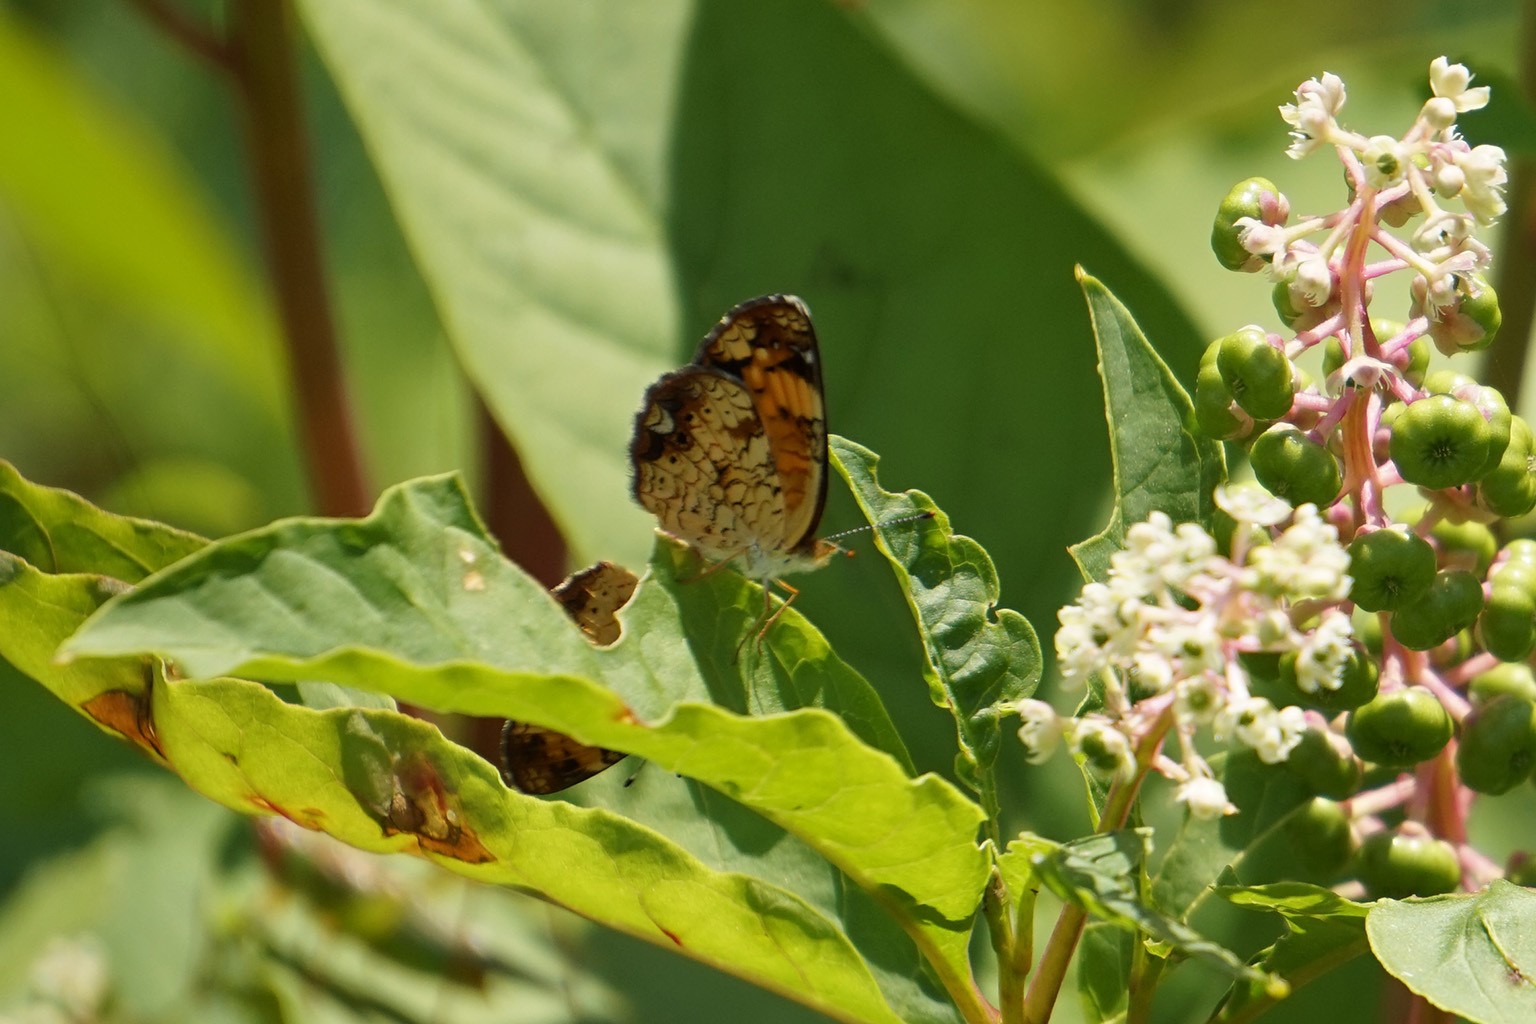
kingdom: Animalia
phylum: Arthropoda
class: Insecta
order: Lepidoptera
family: Nymphalidae
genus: Phyciodes
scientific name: Phyciodes tharos
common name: Pearl crescent
